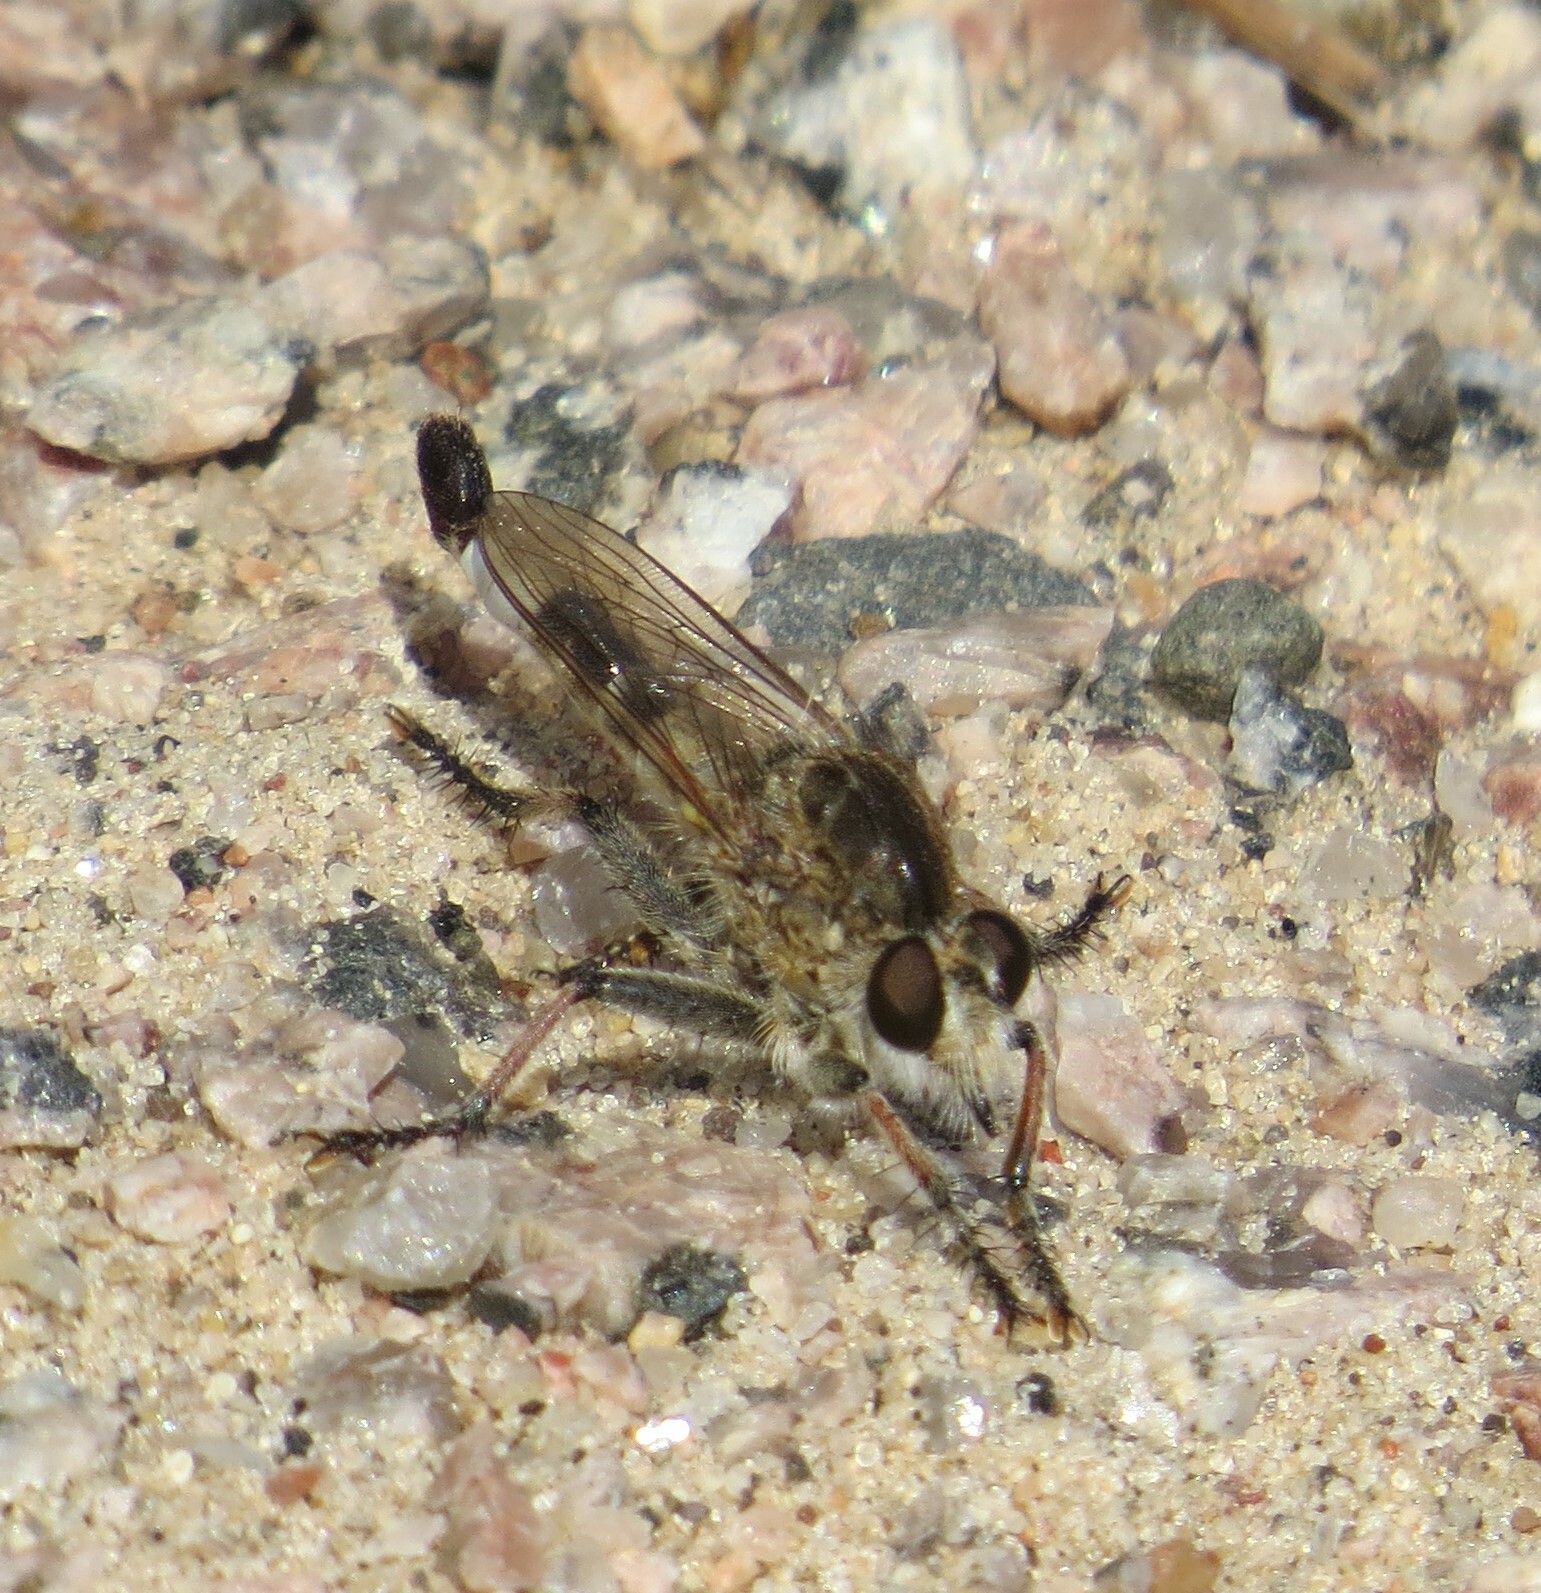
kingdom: Animalia
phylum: Arthropoda
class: Insecta
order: Diptera
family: Asilidae
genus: Efferia
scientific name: Efferia albibarbis
